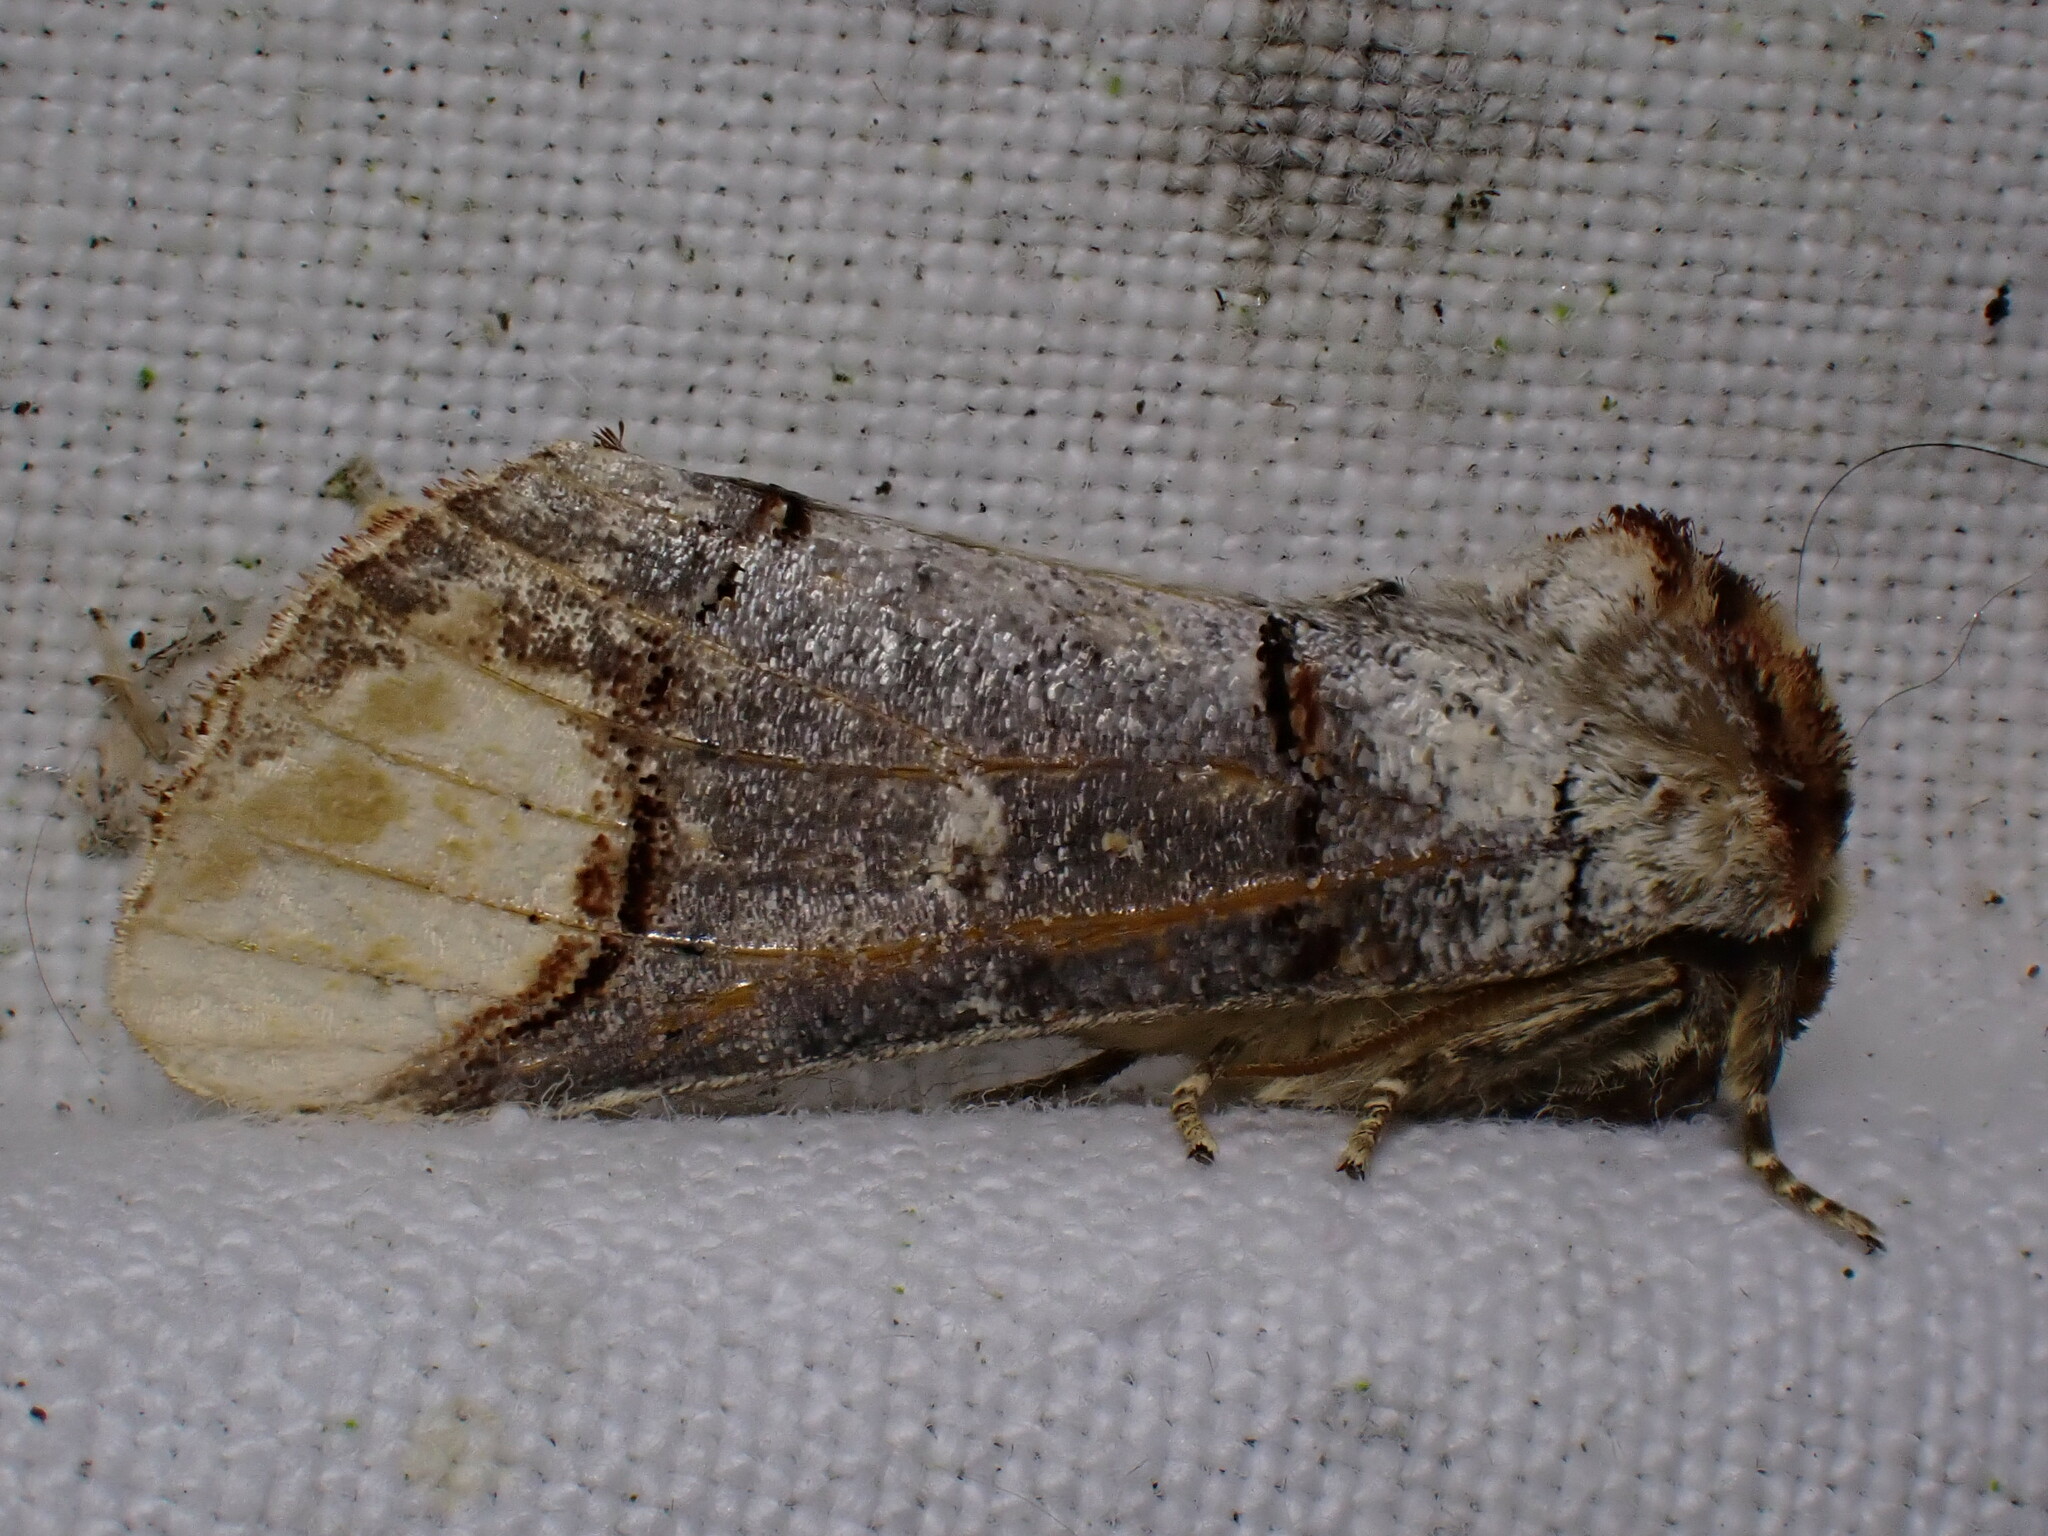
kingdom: Animalia
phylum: Arthropoda
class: Insecta
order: Lepidoptera
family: Notodontidae
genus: Phalera
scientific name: Phalera bucephala
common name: Buff-tip
